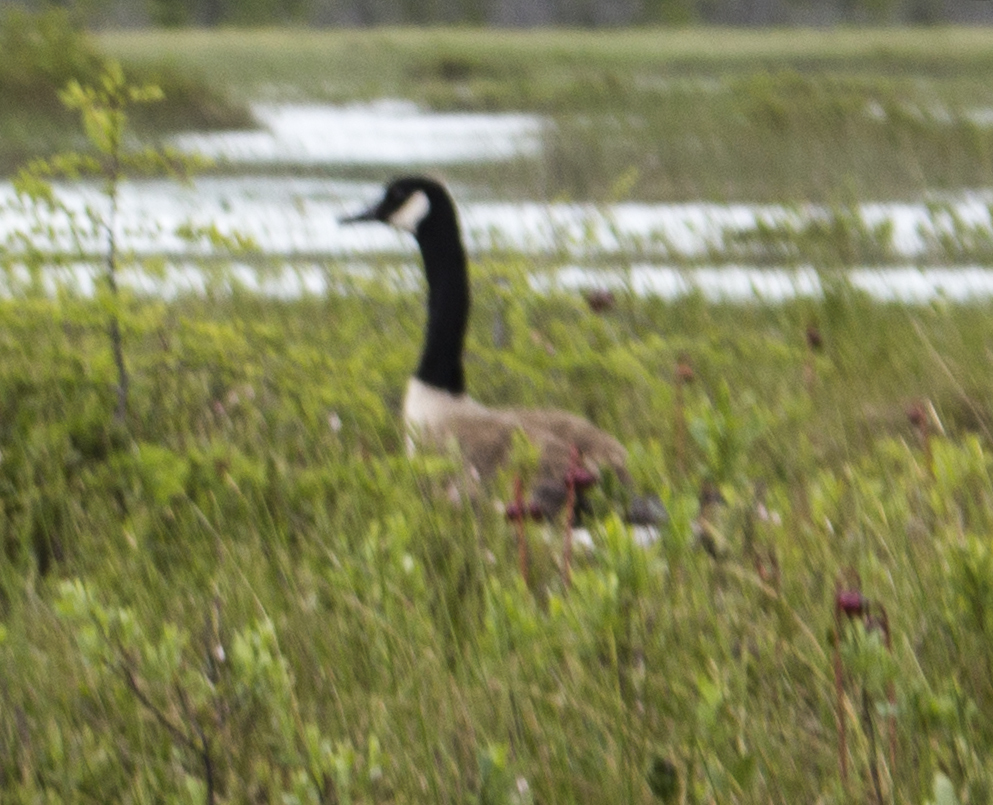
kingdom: Animalia
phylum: Chordata
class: Aves
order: Anseriformes
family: Anatidae
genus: Branta
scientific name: Branta canadensis
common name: Canada goose
